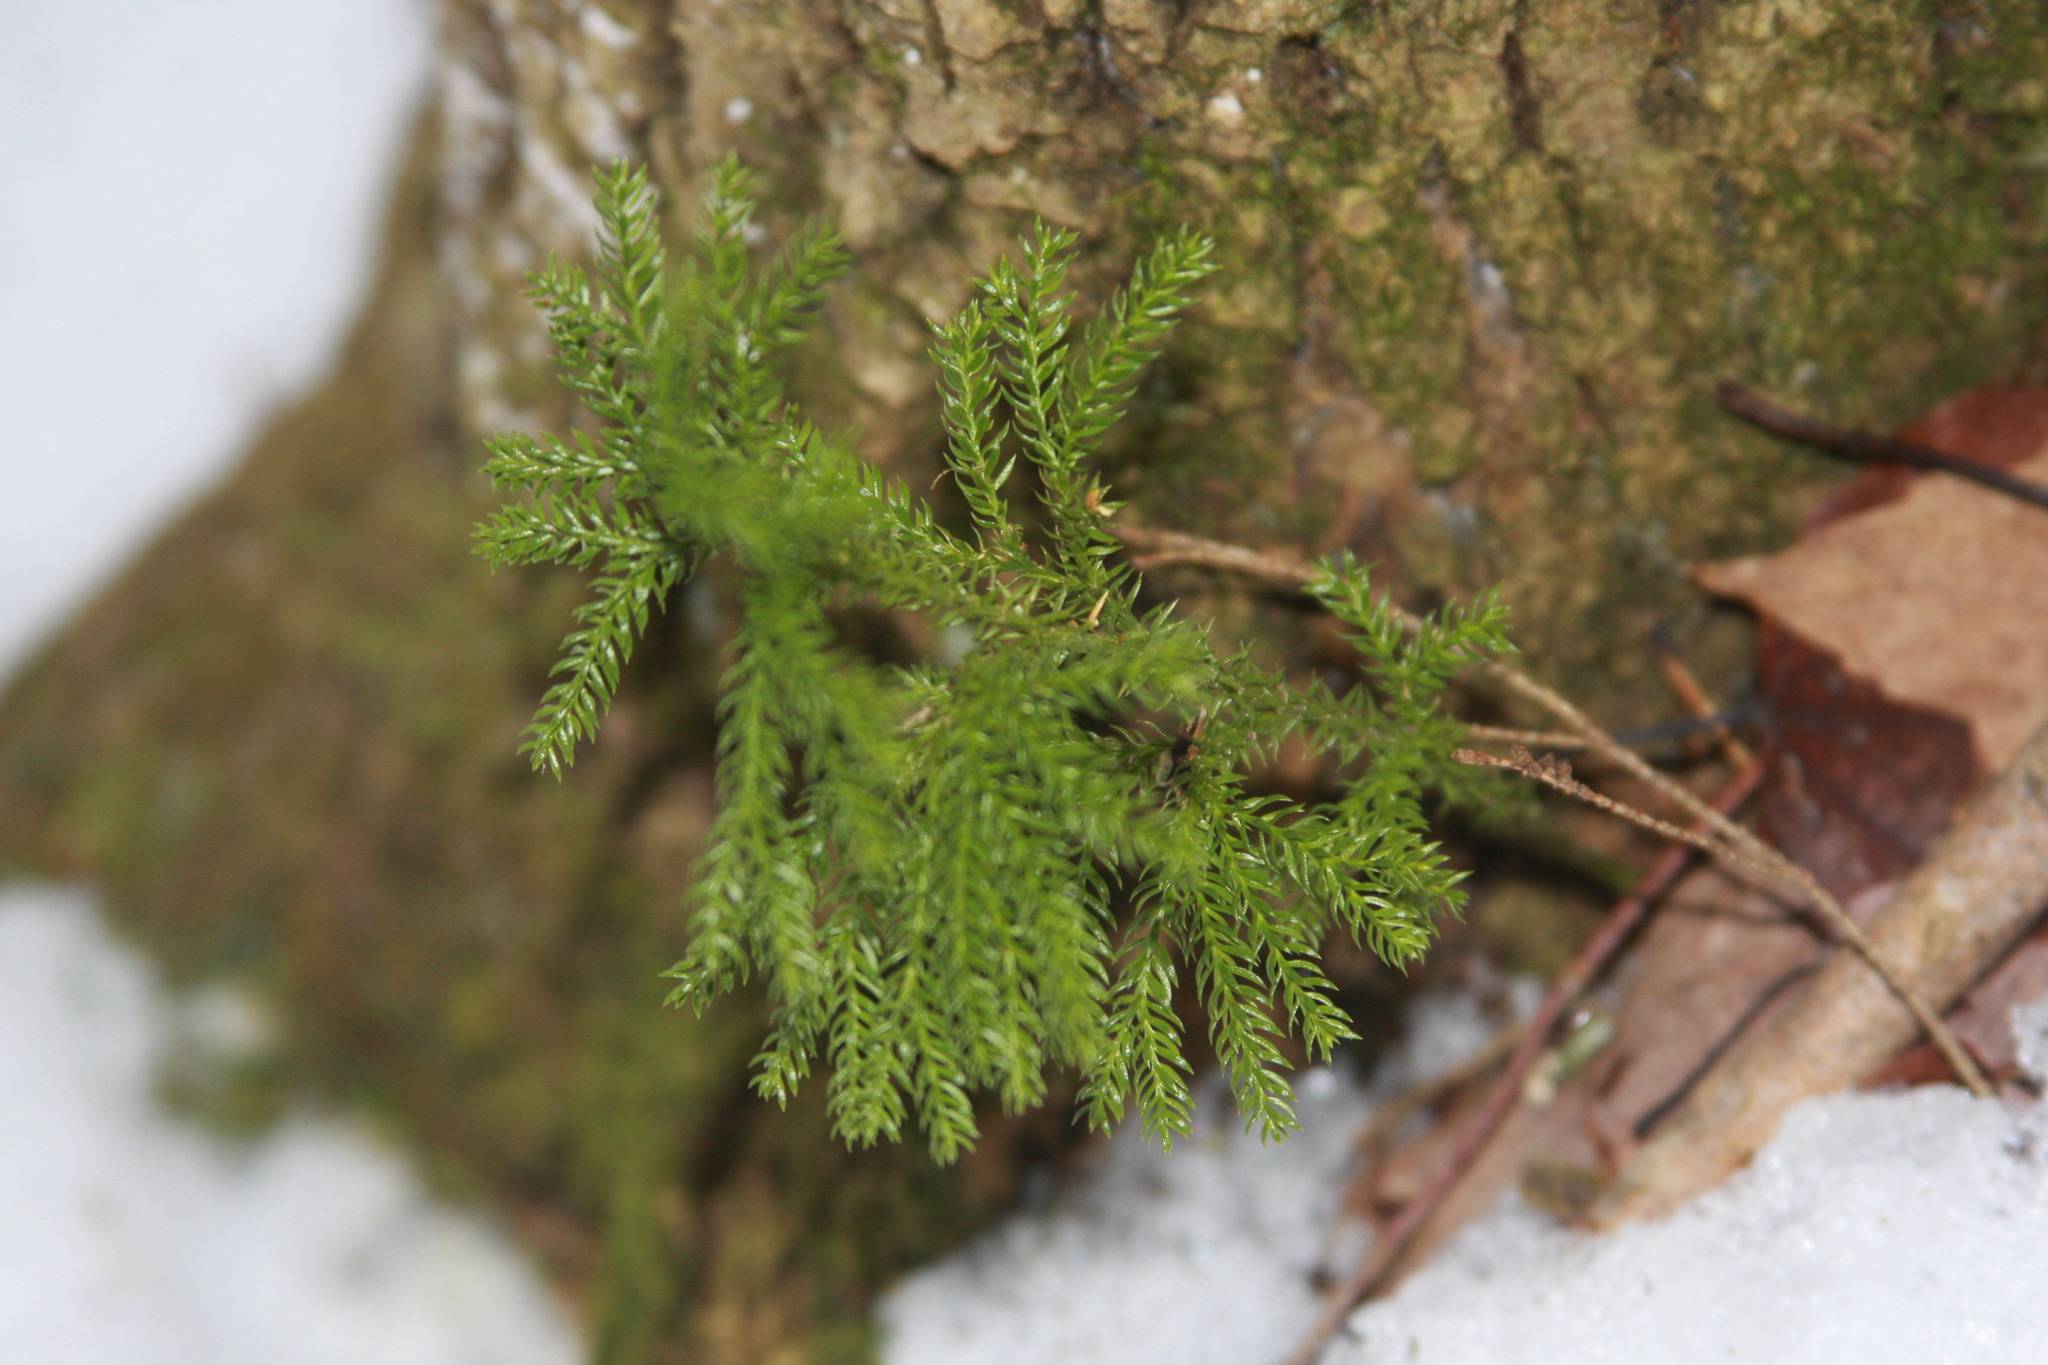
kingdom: Plantae
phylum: Tracheophyta
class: Lycopodiopsida
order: Lycopodiales
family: Lycopodiaceae
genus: Dendrolycopodium
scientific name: Dendrolycopodium dendroideum
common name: Northern tree-clubmoss
